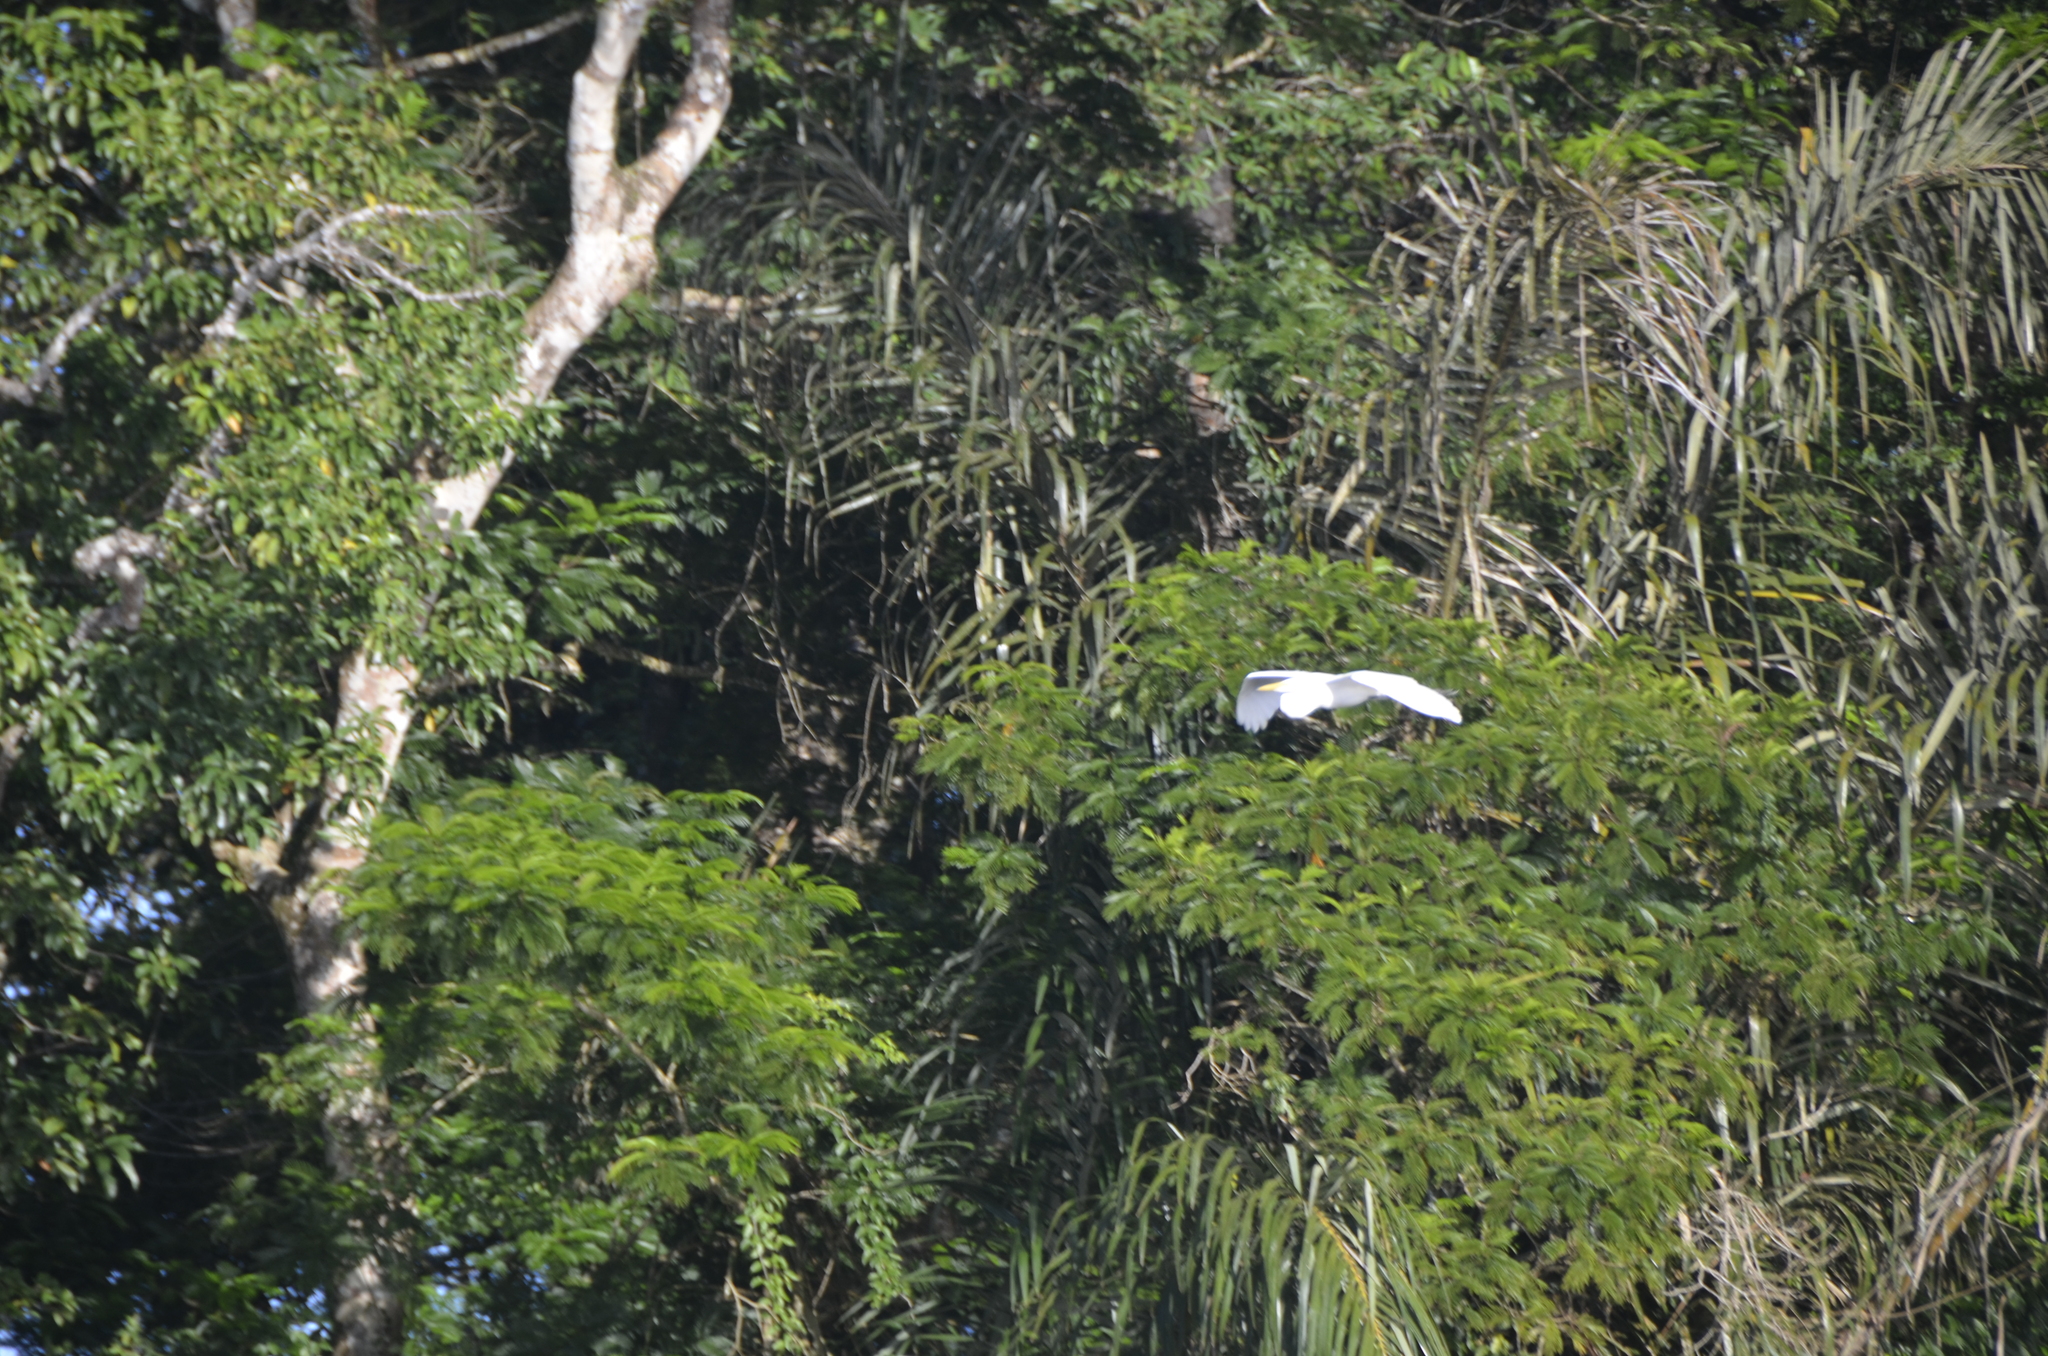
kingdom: Animalia
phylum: Chordata
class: Aves
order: Pelecaniformes
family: Ardeidae
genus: Ardea
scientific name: Ardea alba
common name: Great egret
